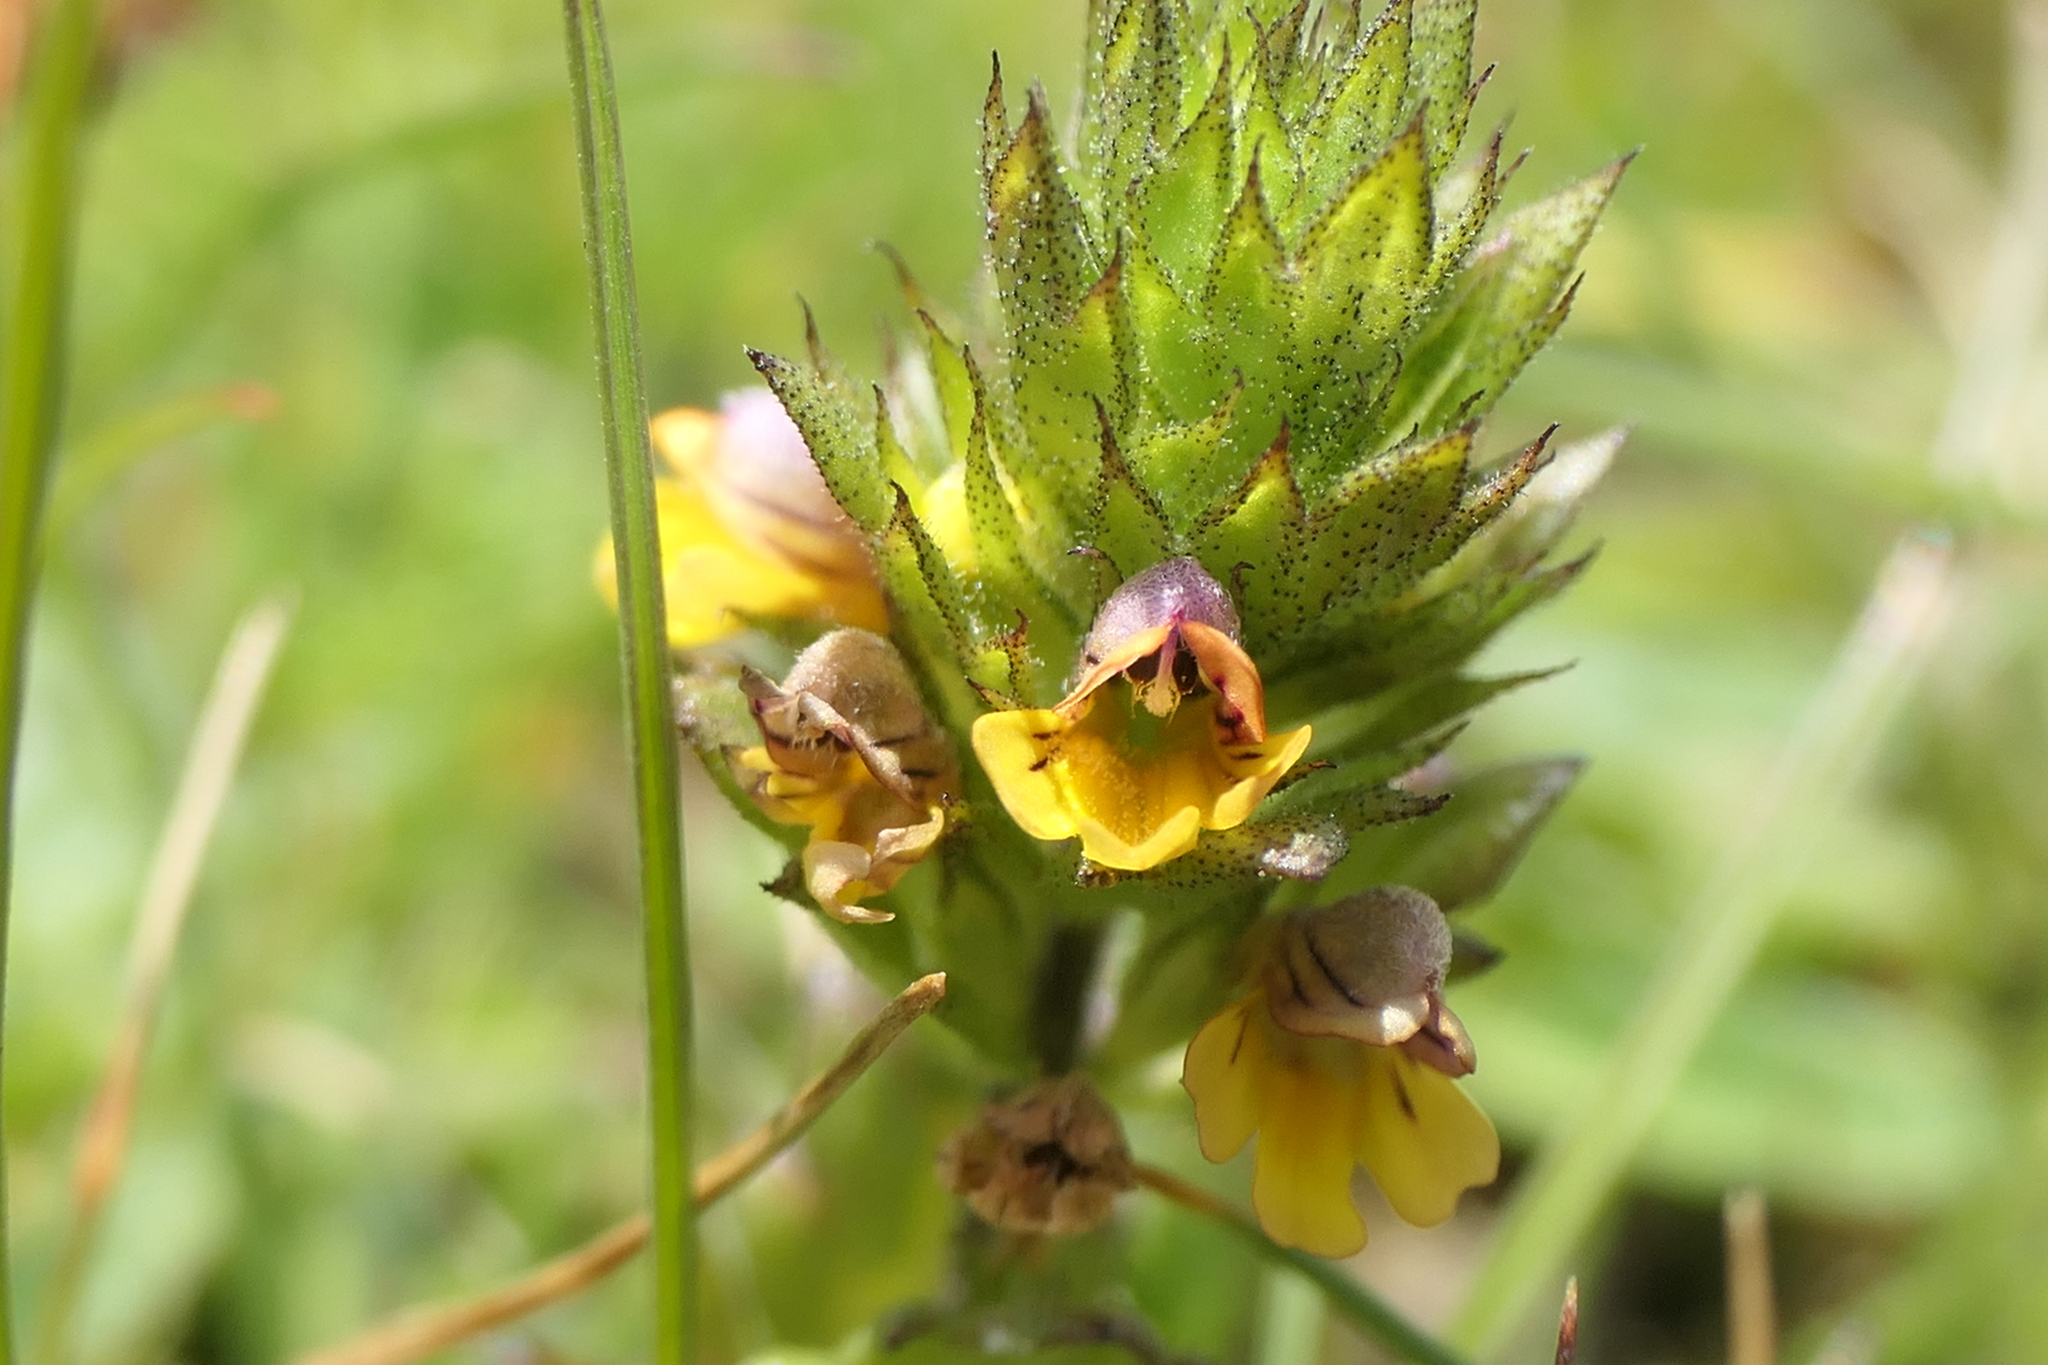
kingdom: Plantae
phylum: Tracheophyta
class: Magnoliopsida
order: Lamiales
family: Orobanchaceae
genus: Euphrasia
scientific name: Euphrasia minima
